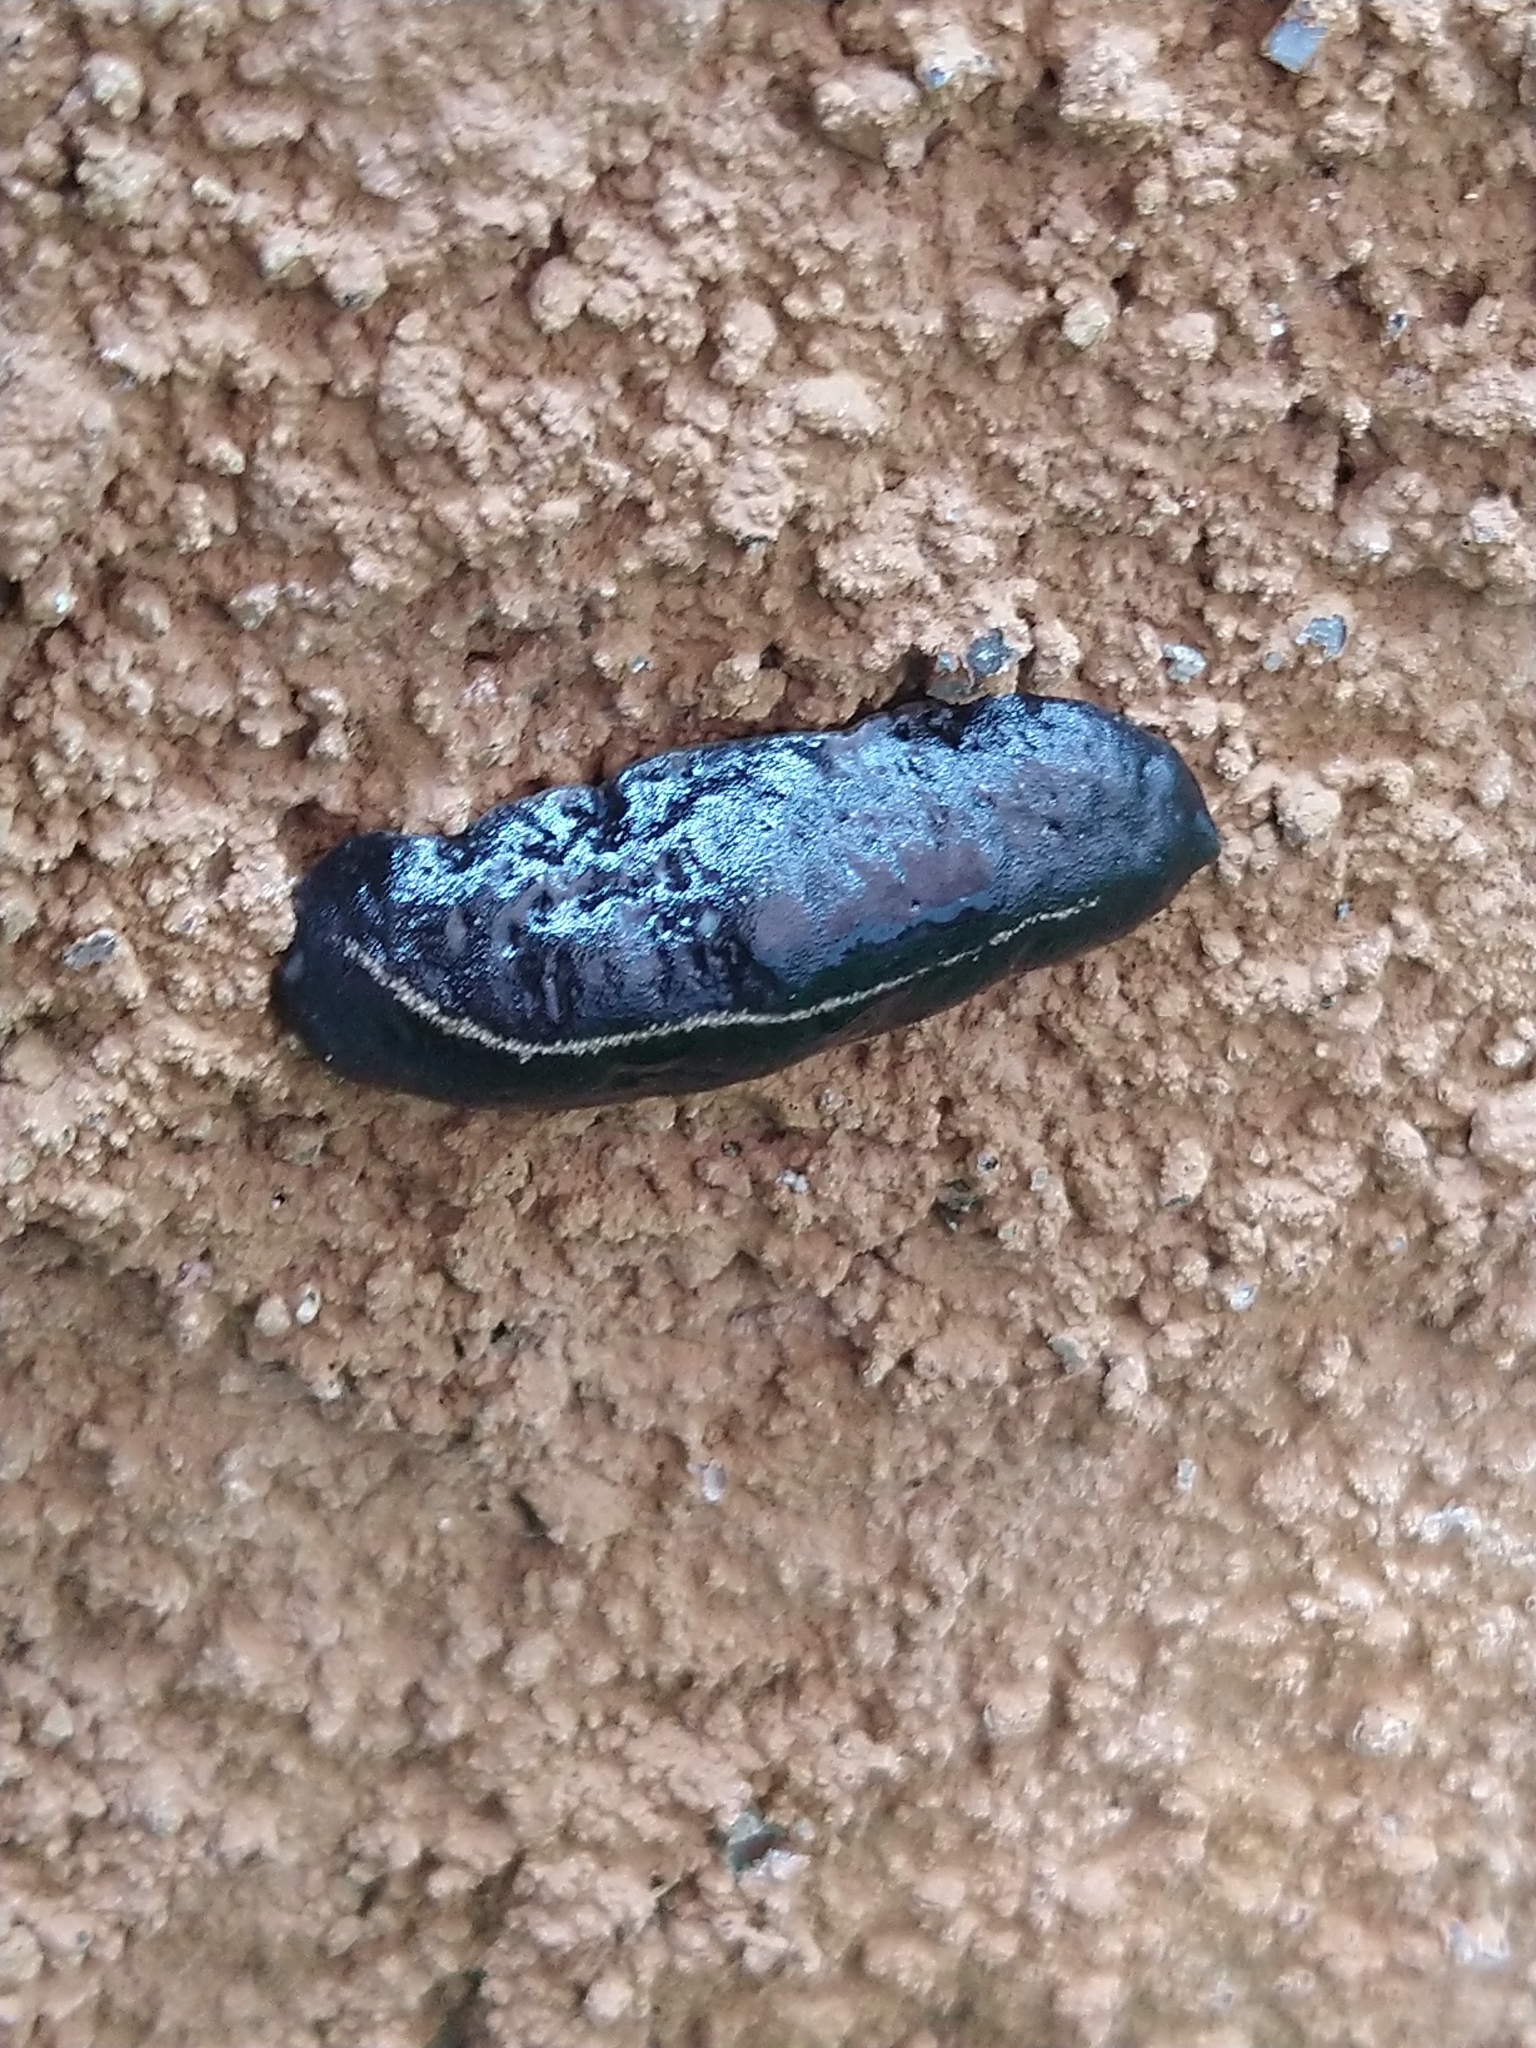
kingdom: Animalia
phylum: Mollusca
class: Gastropoda
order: Systellommatophora
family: Veronicellidae
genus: Laevicaulis
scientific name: Laevicaulis alte
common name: Tropical leatherleaf
